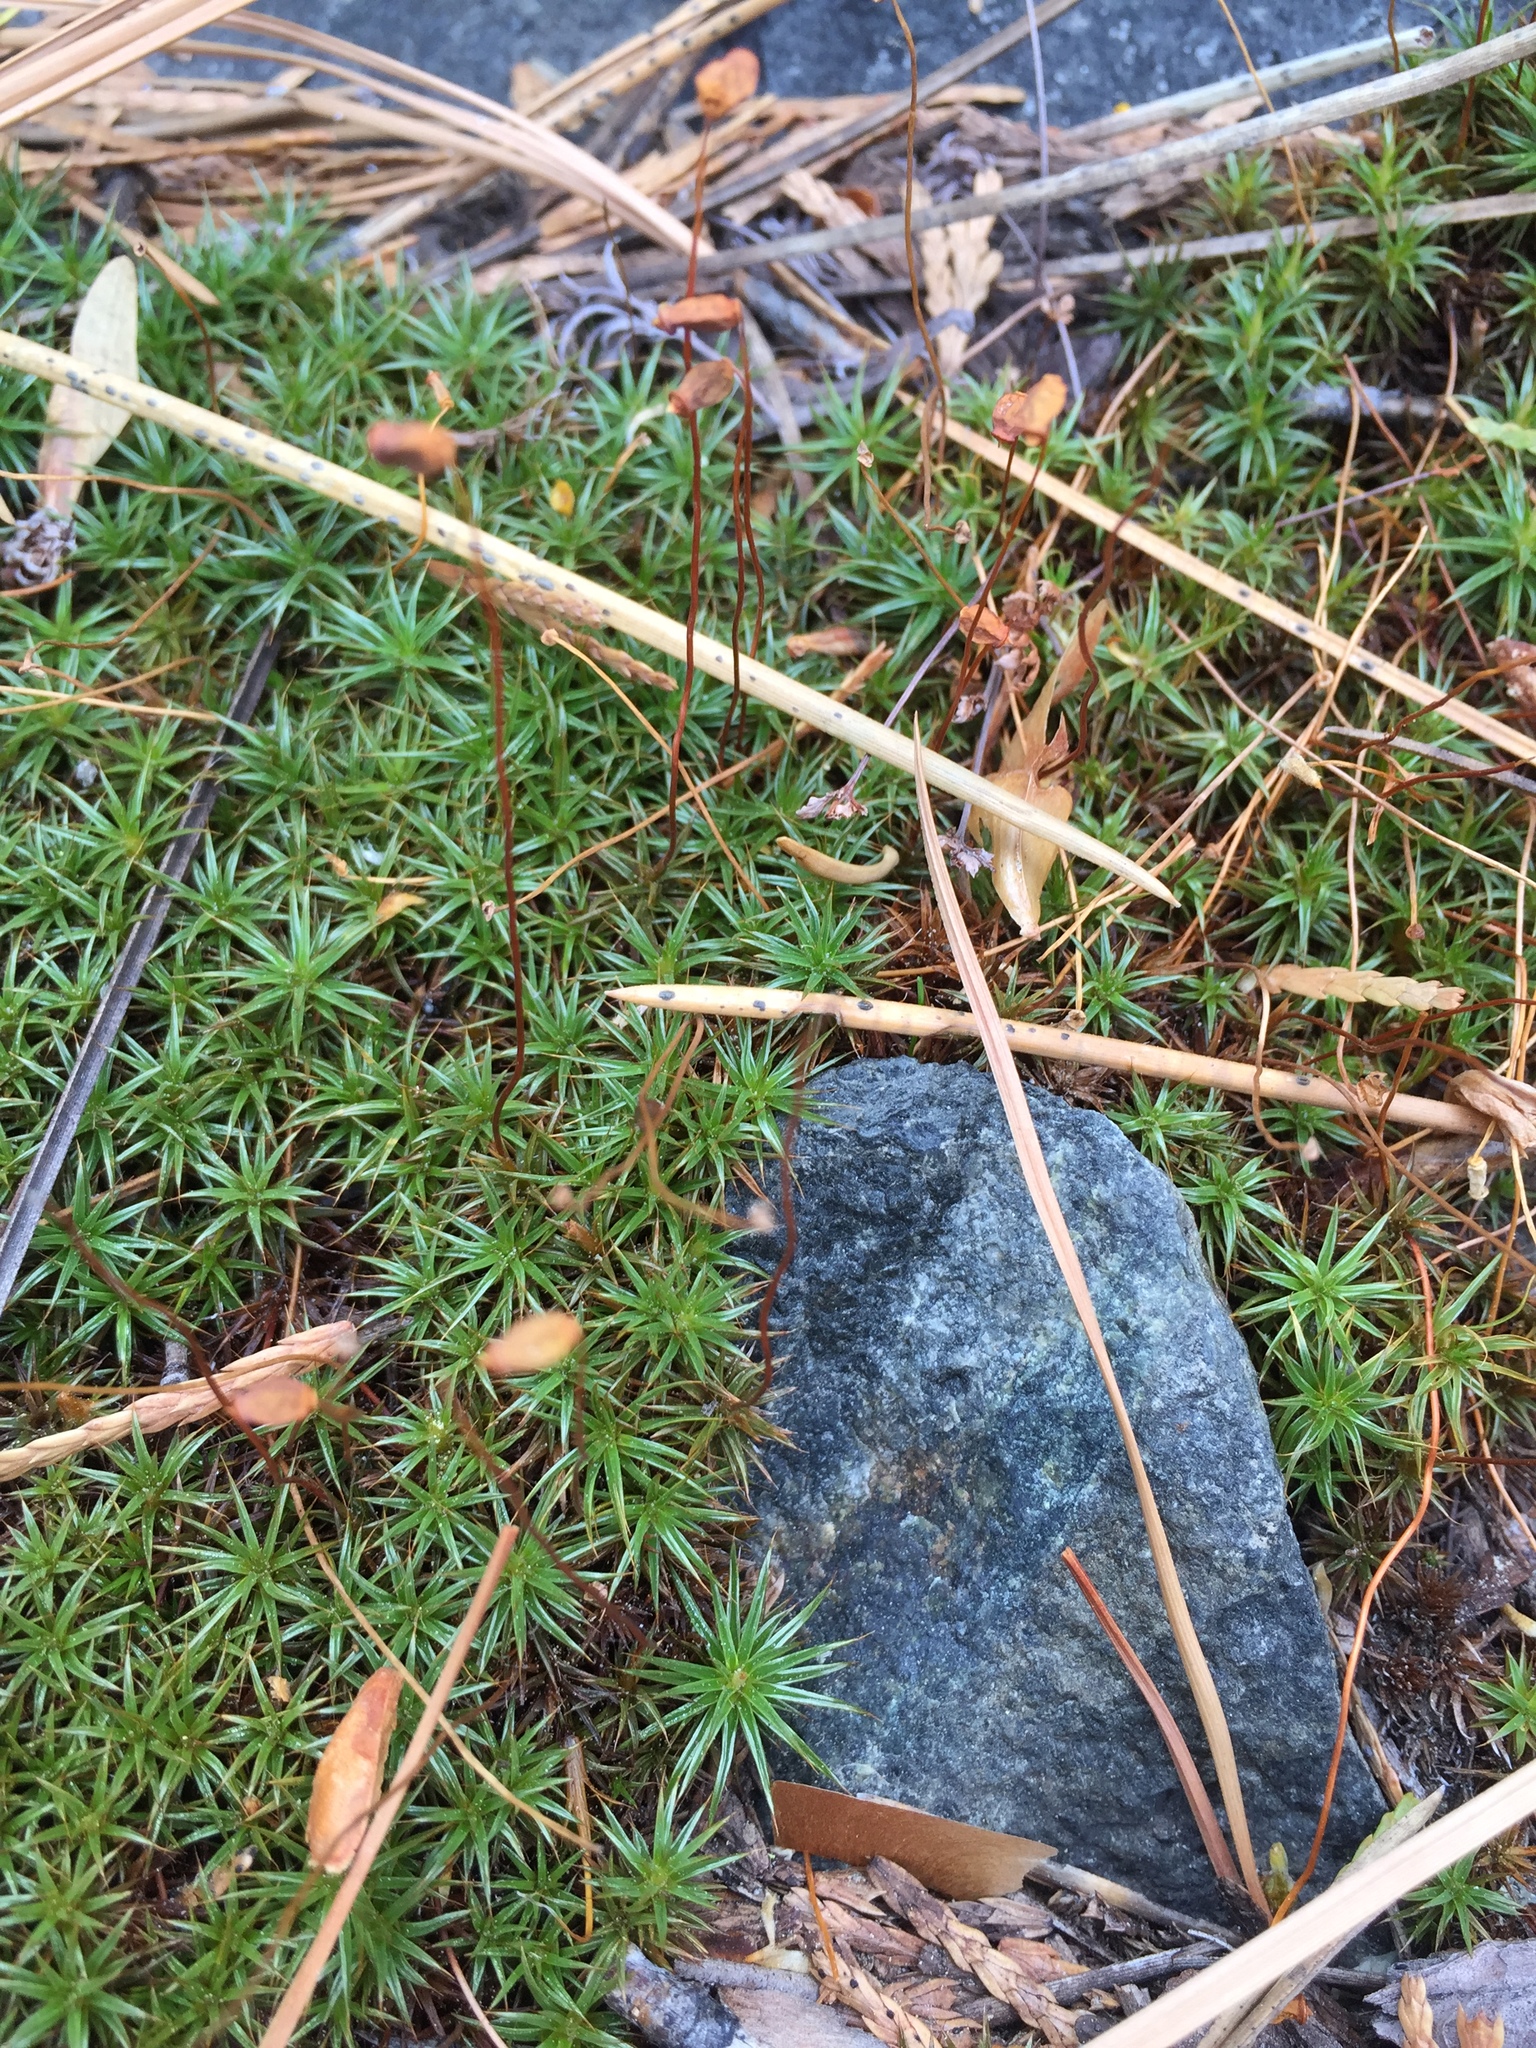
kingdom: Plantae
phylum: Bryophyta
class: Polytrichopsida
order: Polytrichales
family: Polytrichaceae
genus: Polytrichum
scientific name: Polytrichum juniperinum
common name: Juniper haircap moss
